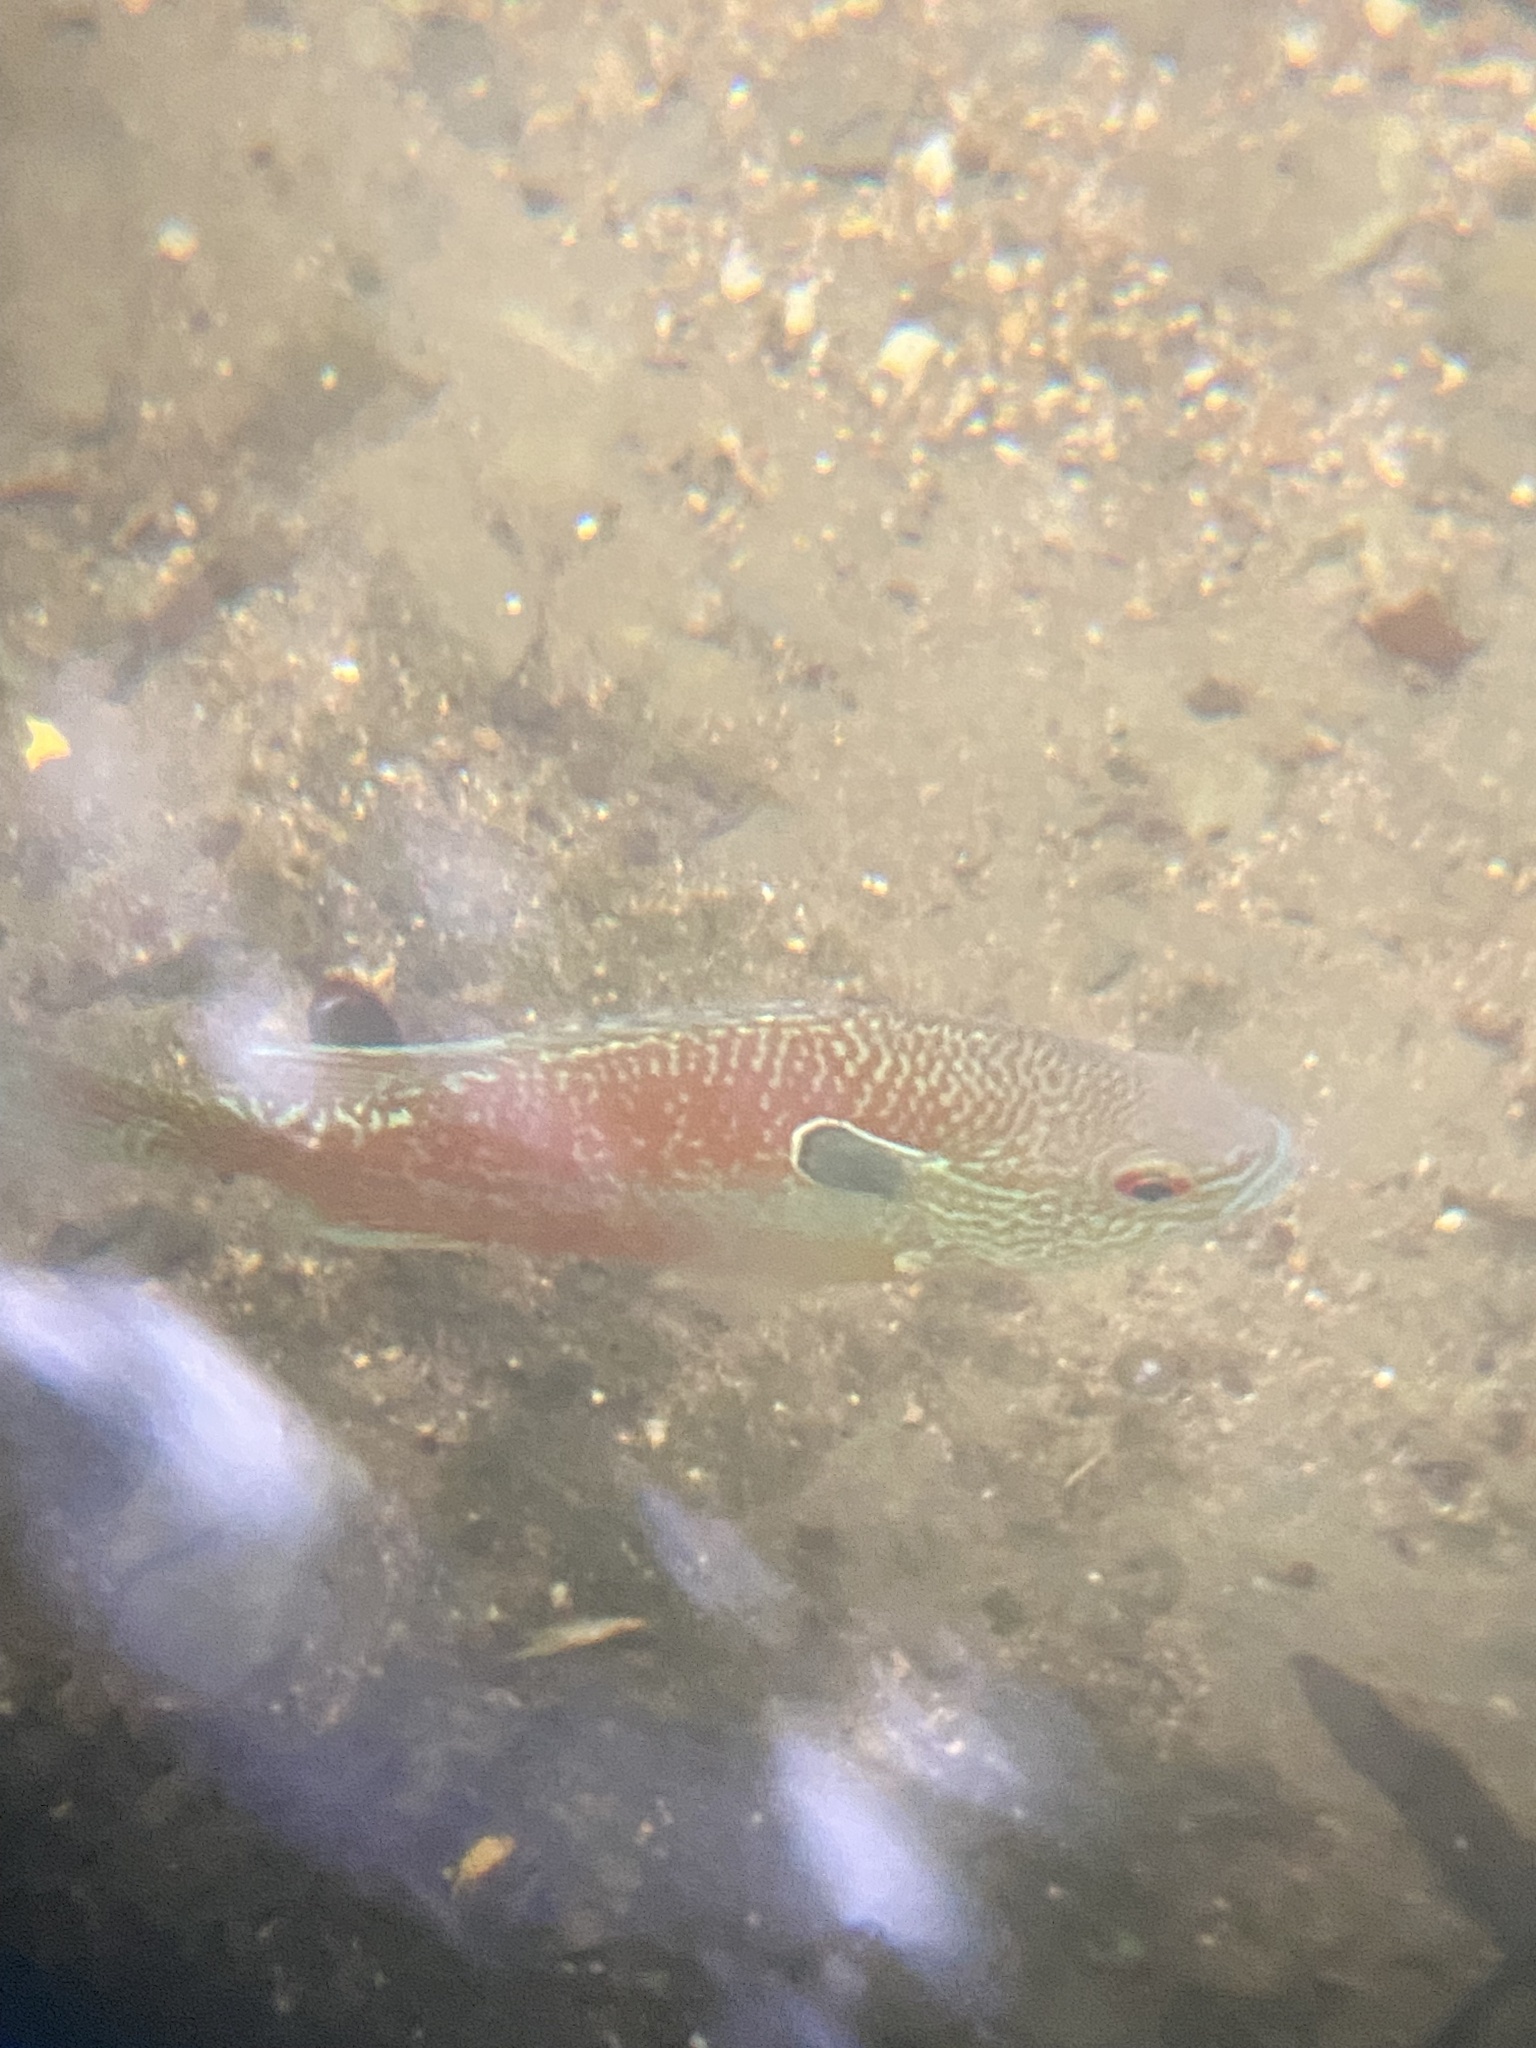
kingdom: Animalia
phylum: Chordata
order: Perciformes
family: Centrarchidae
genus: Lepomis
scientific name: Lepomis aquilensis
